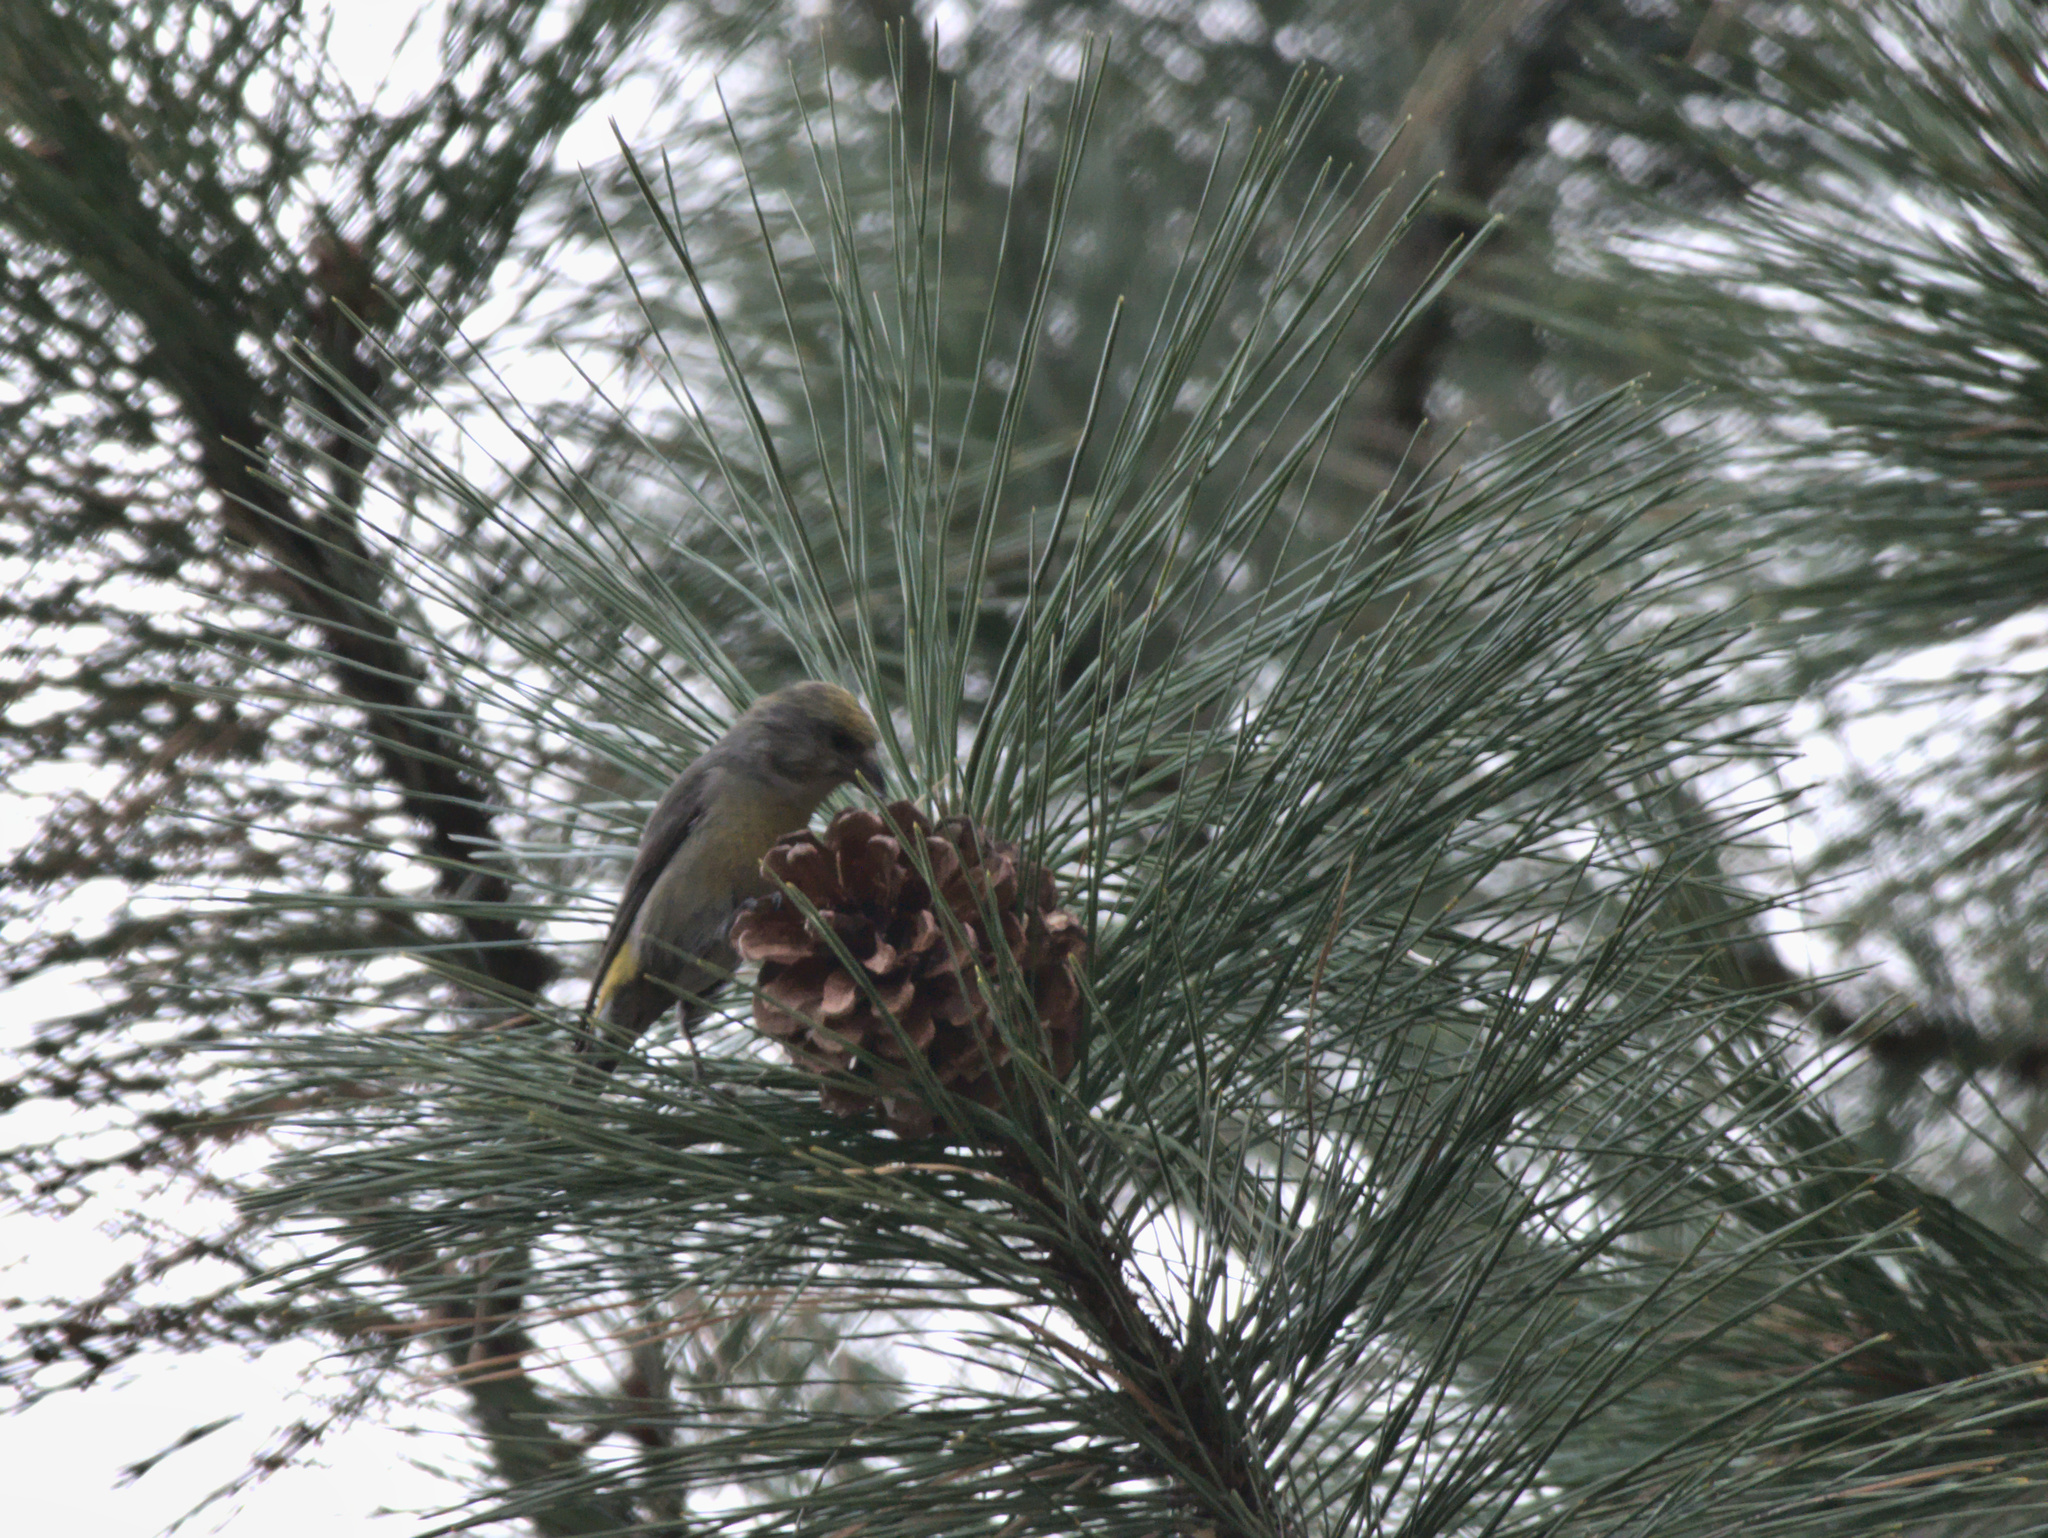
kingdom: Animalia
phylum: Chordata
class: Aves
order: Passeriformes
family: Fringillidae
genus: Loxia
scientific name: Loxia curvirostra
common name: Red crossbill
